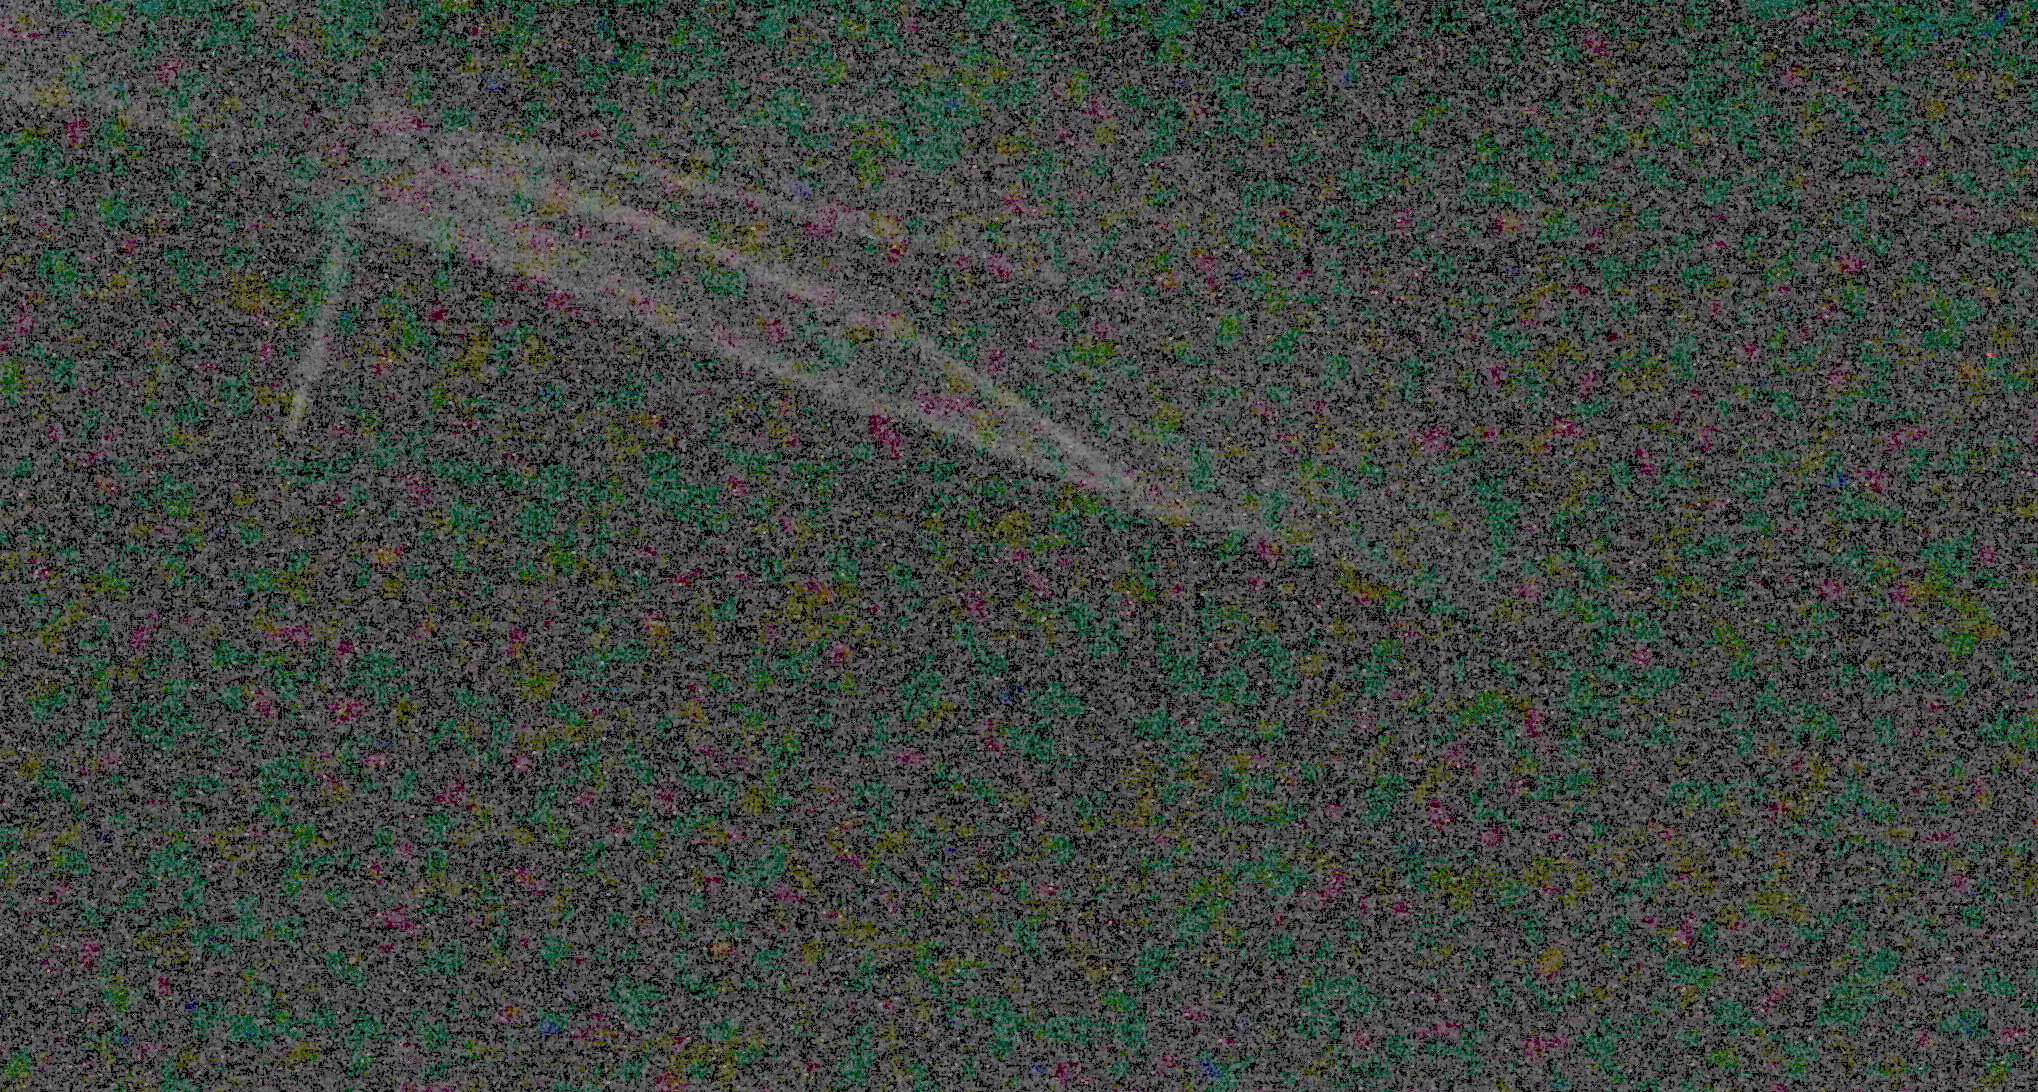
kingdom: Animalia
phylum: Chordata
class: Mammalia
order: Chiroptera
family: Pteropodidae
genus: Pteropus
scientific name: Pteropus poliocephalus
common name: Gray-headed flying fox
